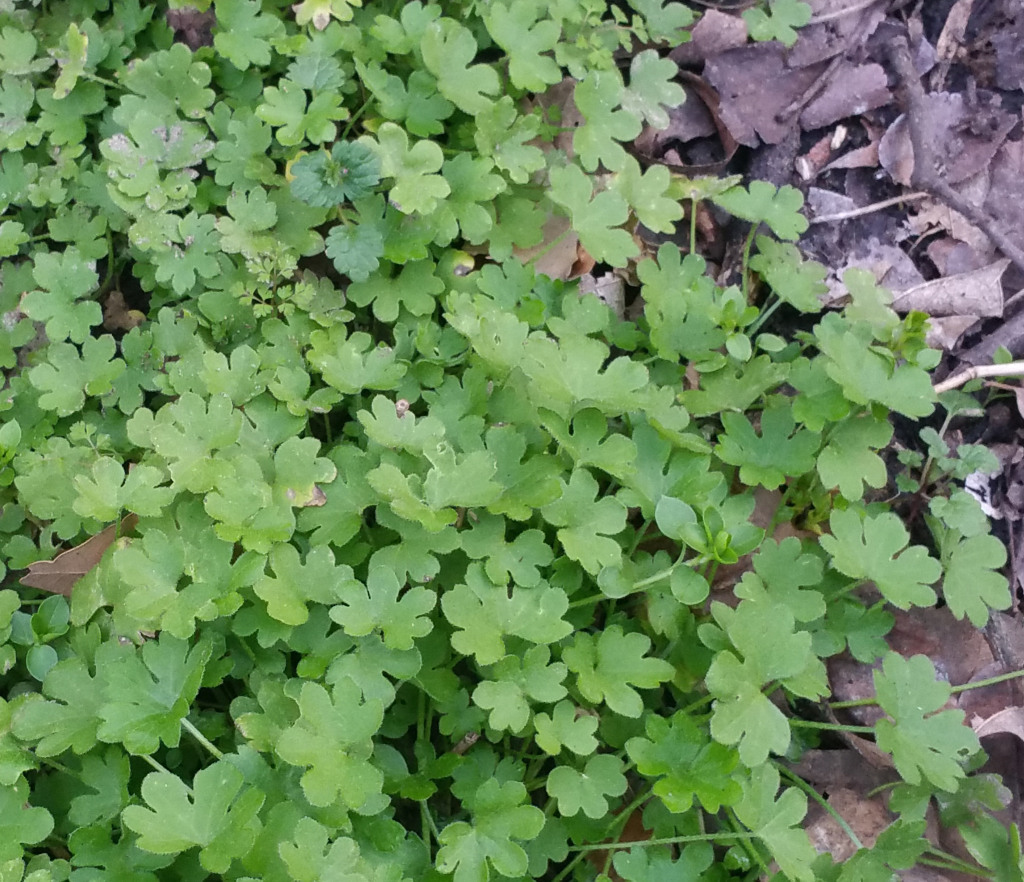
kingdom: Plantae
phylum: Tracheophyta
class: Magnoliopsida
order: Apiales
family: Apiaceae
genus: Bowlesia
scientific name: Bowlesia incana
